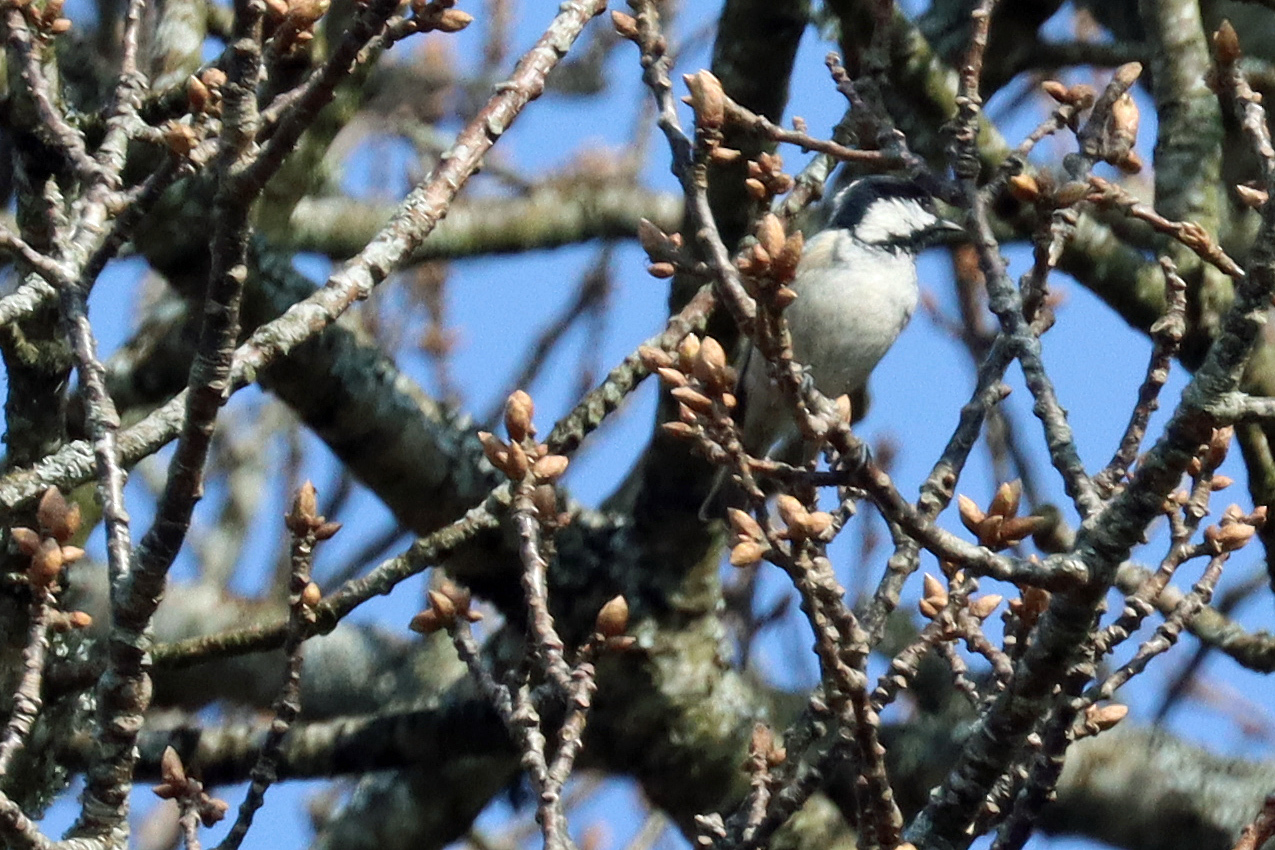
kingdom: Animalia
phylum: Chordata
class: Aves
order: Passeriformes
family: Paridae
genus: Periparus
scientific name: Periparus ater
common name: Coal tit
